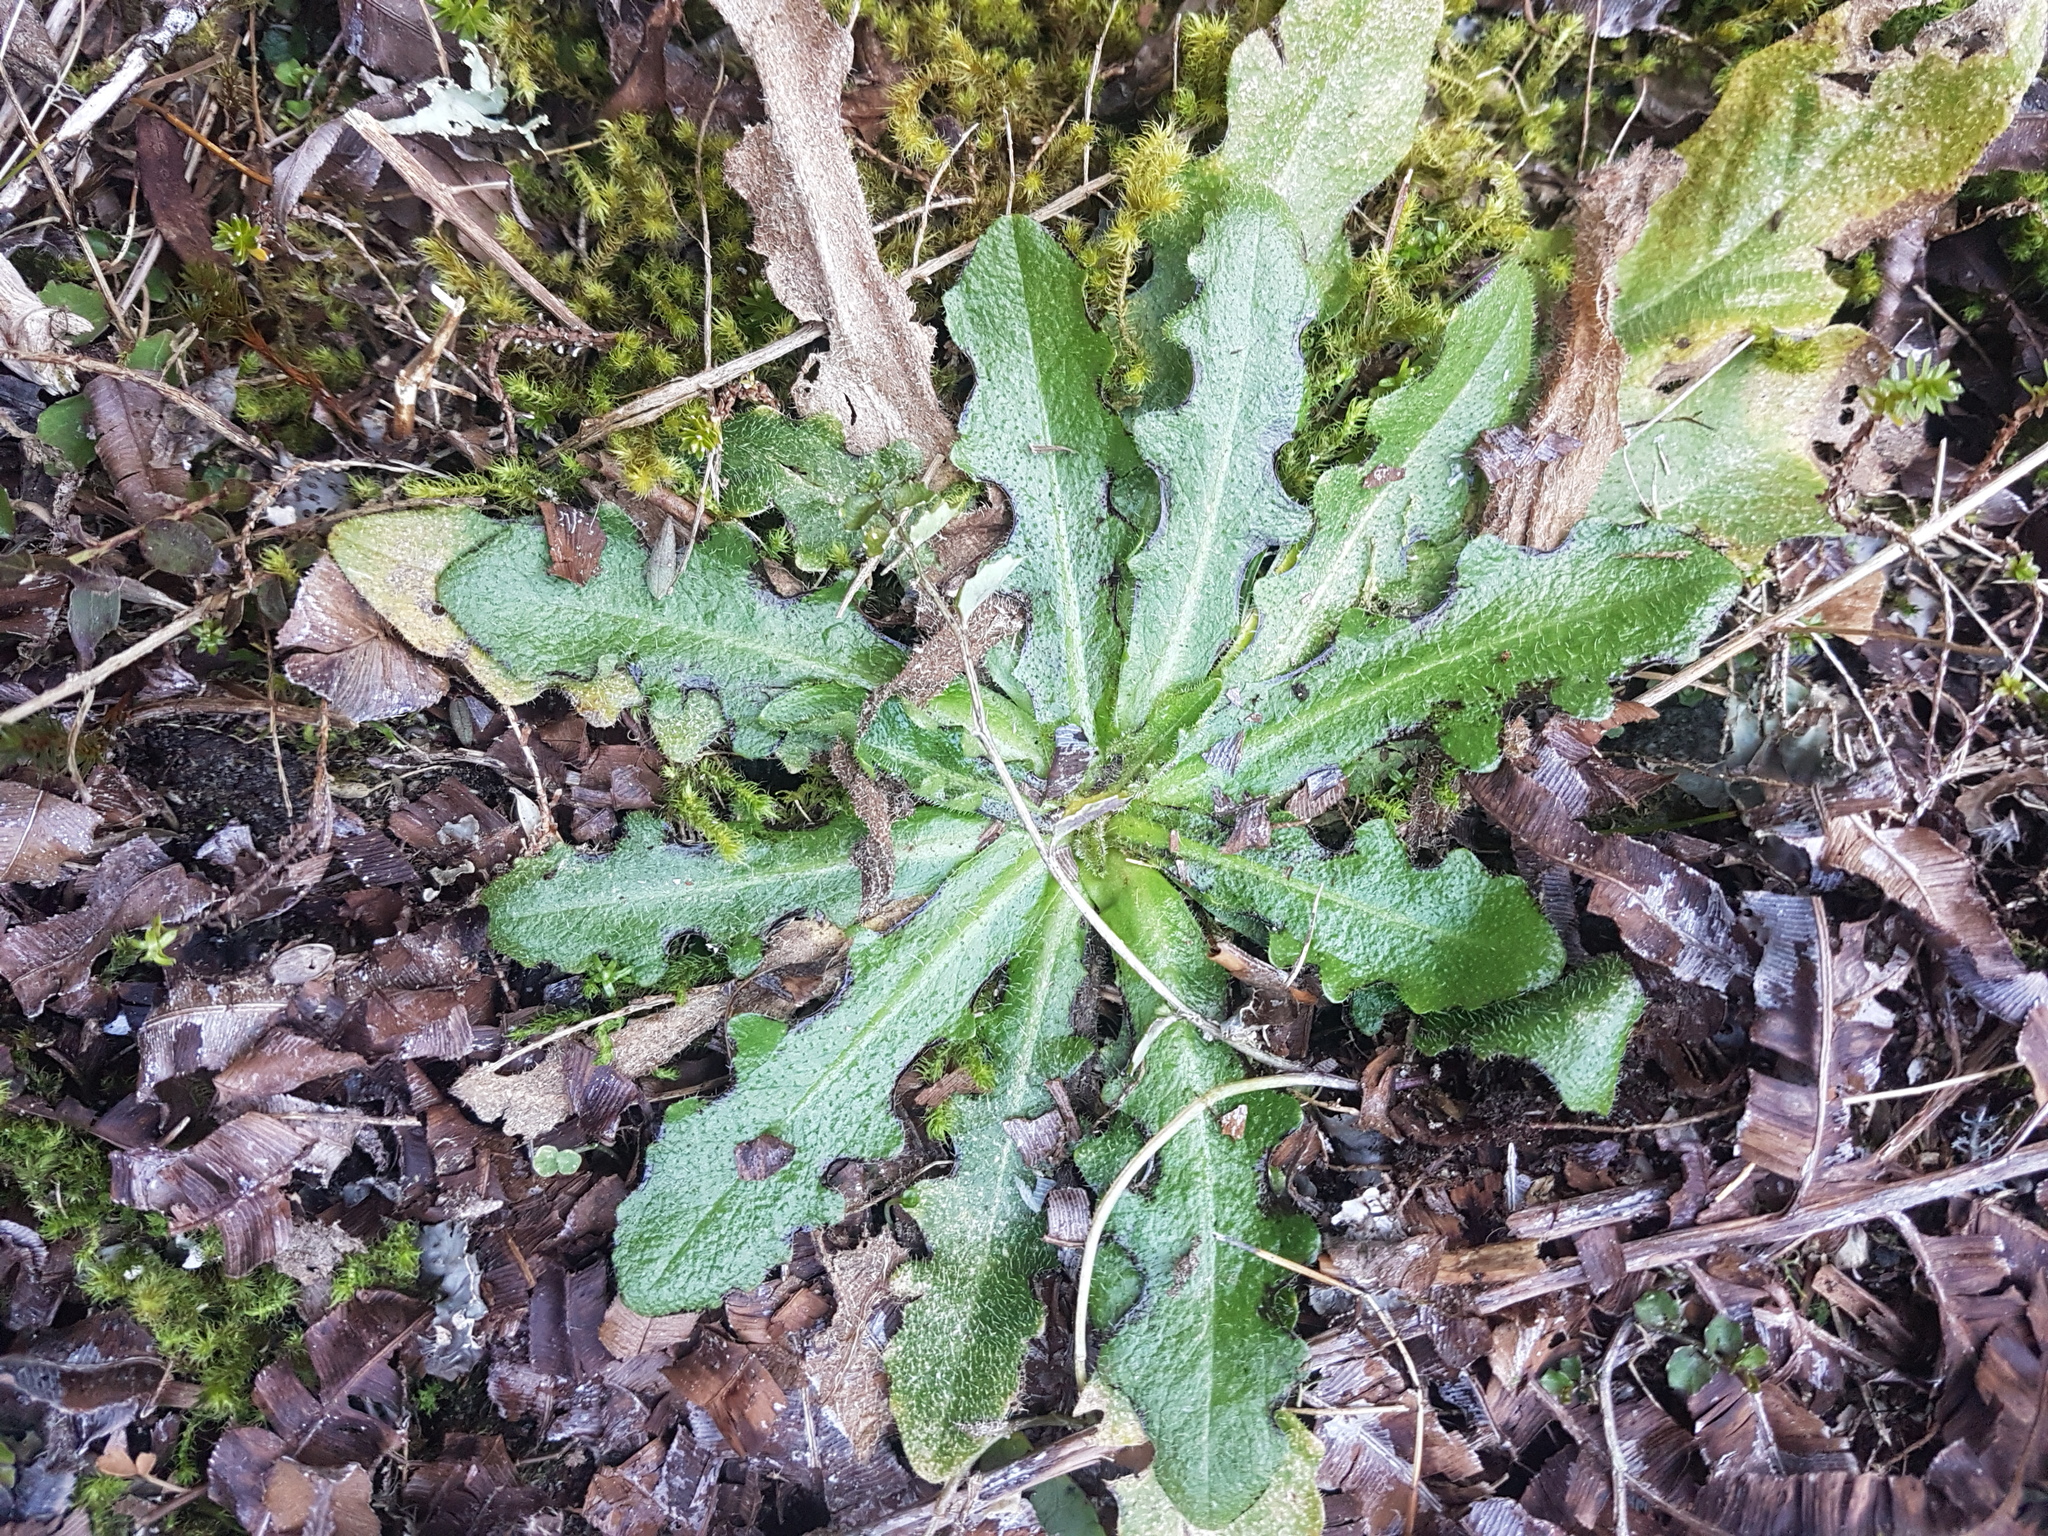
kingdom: Plantae
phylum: Tracheophyta
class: Magnoliopsida
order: Asterales
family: Asteraceae
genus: Hypochaeris
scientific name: Hypochaeris radicata
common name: Flatweed
